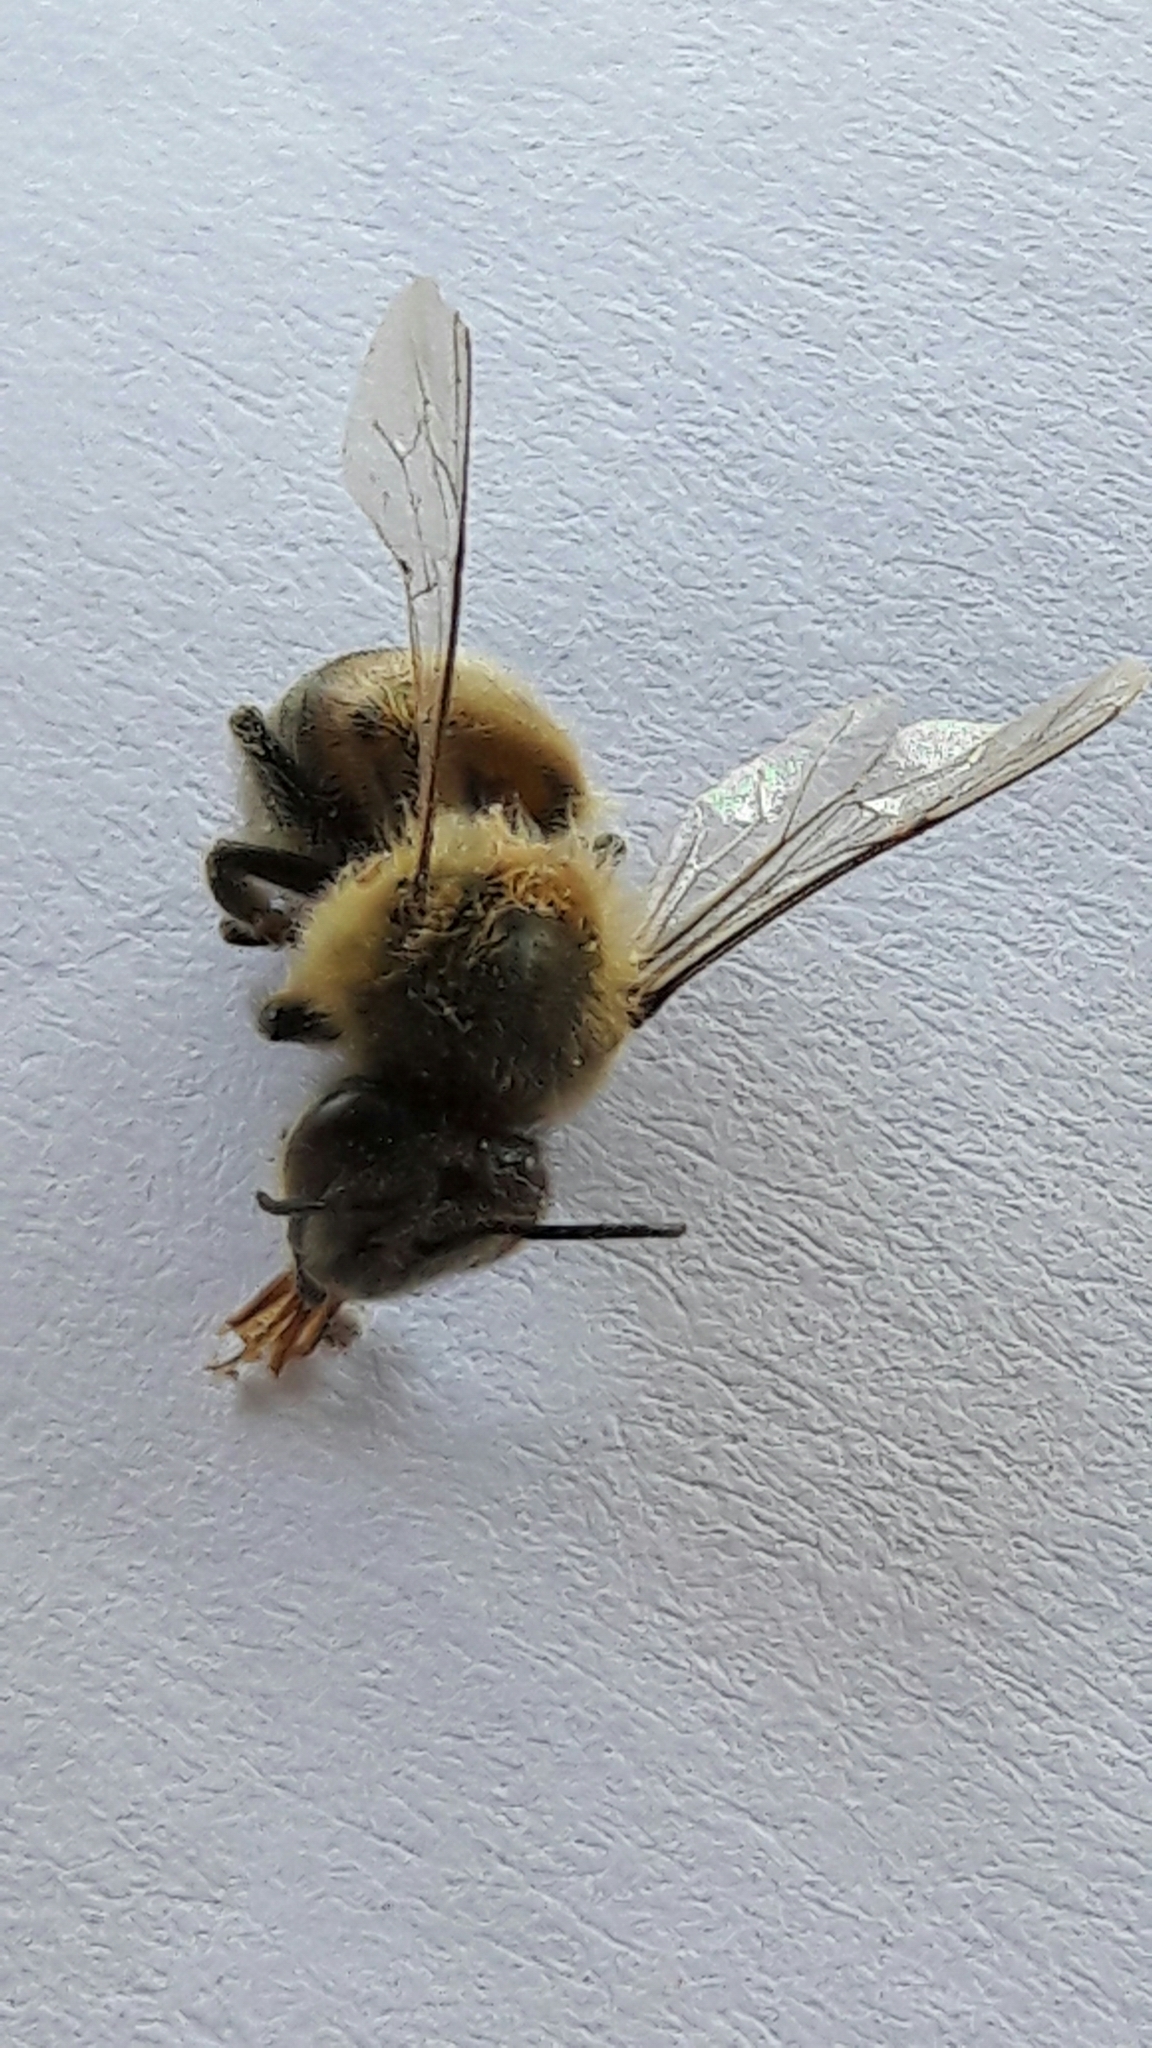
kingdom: Animalia
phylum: Arthropoda
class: Insecta
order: Hymenoptera
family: Apidae
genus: Apis
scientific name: Apis mellifera
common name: Honey bee
